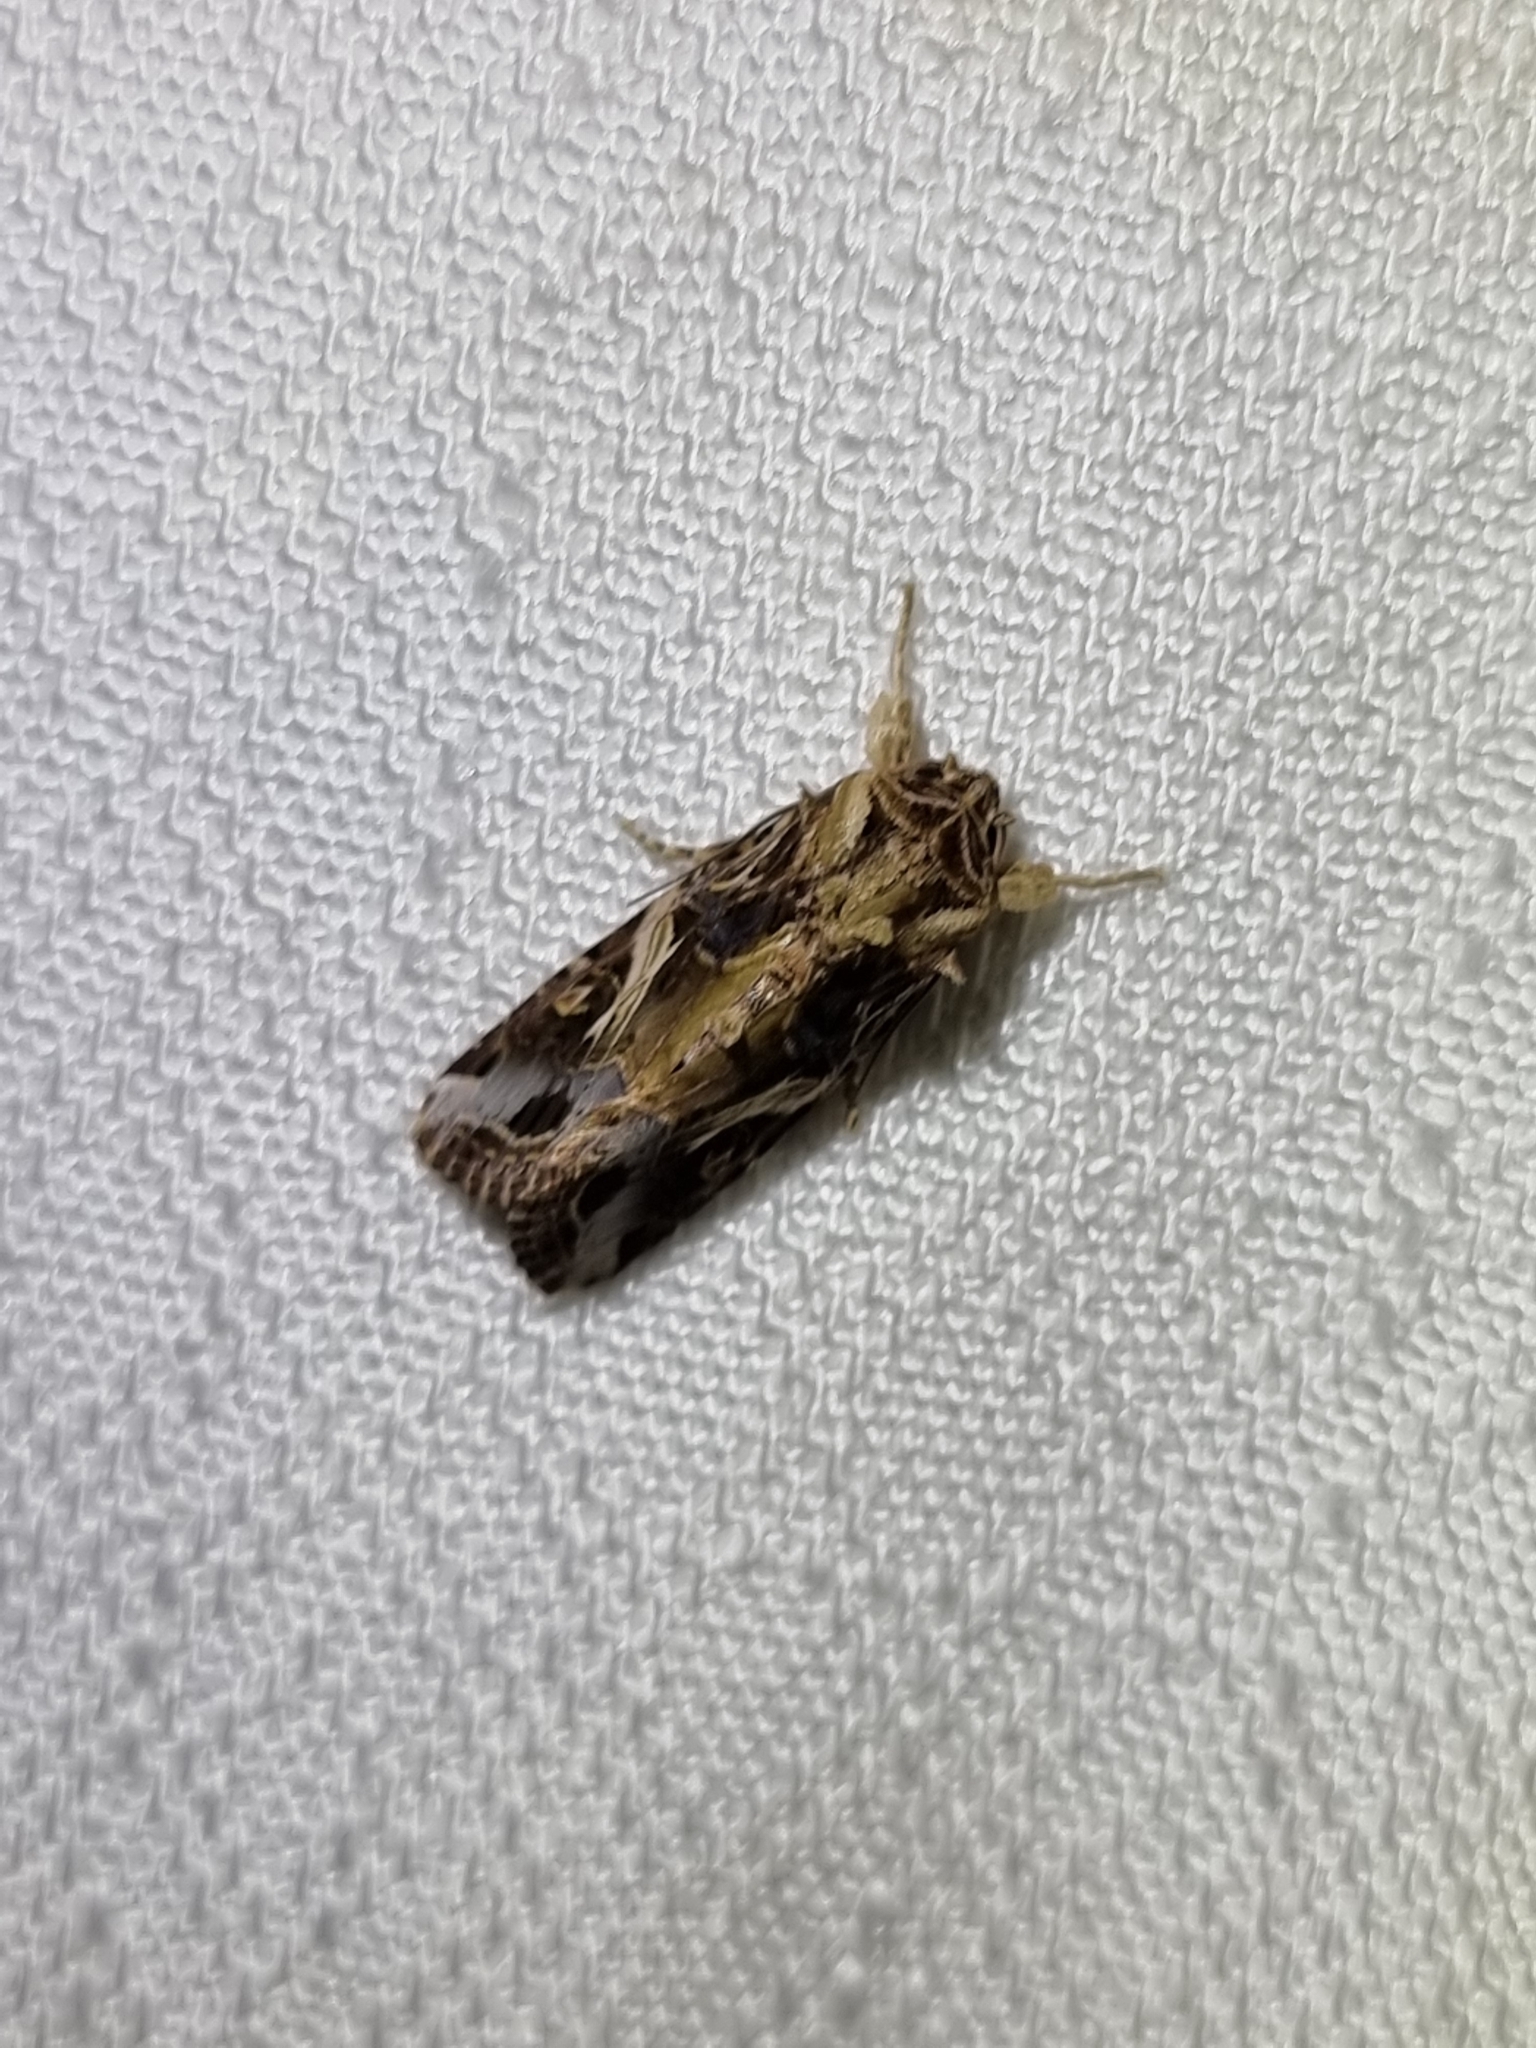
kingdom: Animalia
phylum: Arthropoda
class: Insecta
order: Lepidoptera
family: Noctuidae
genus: Spodoptera
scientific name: Spodoptera litura
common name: Asian cotton leafworm
